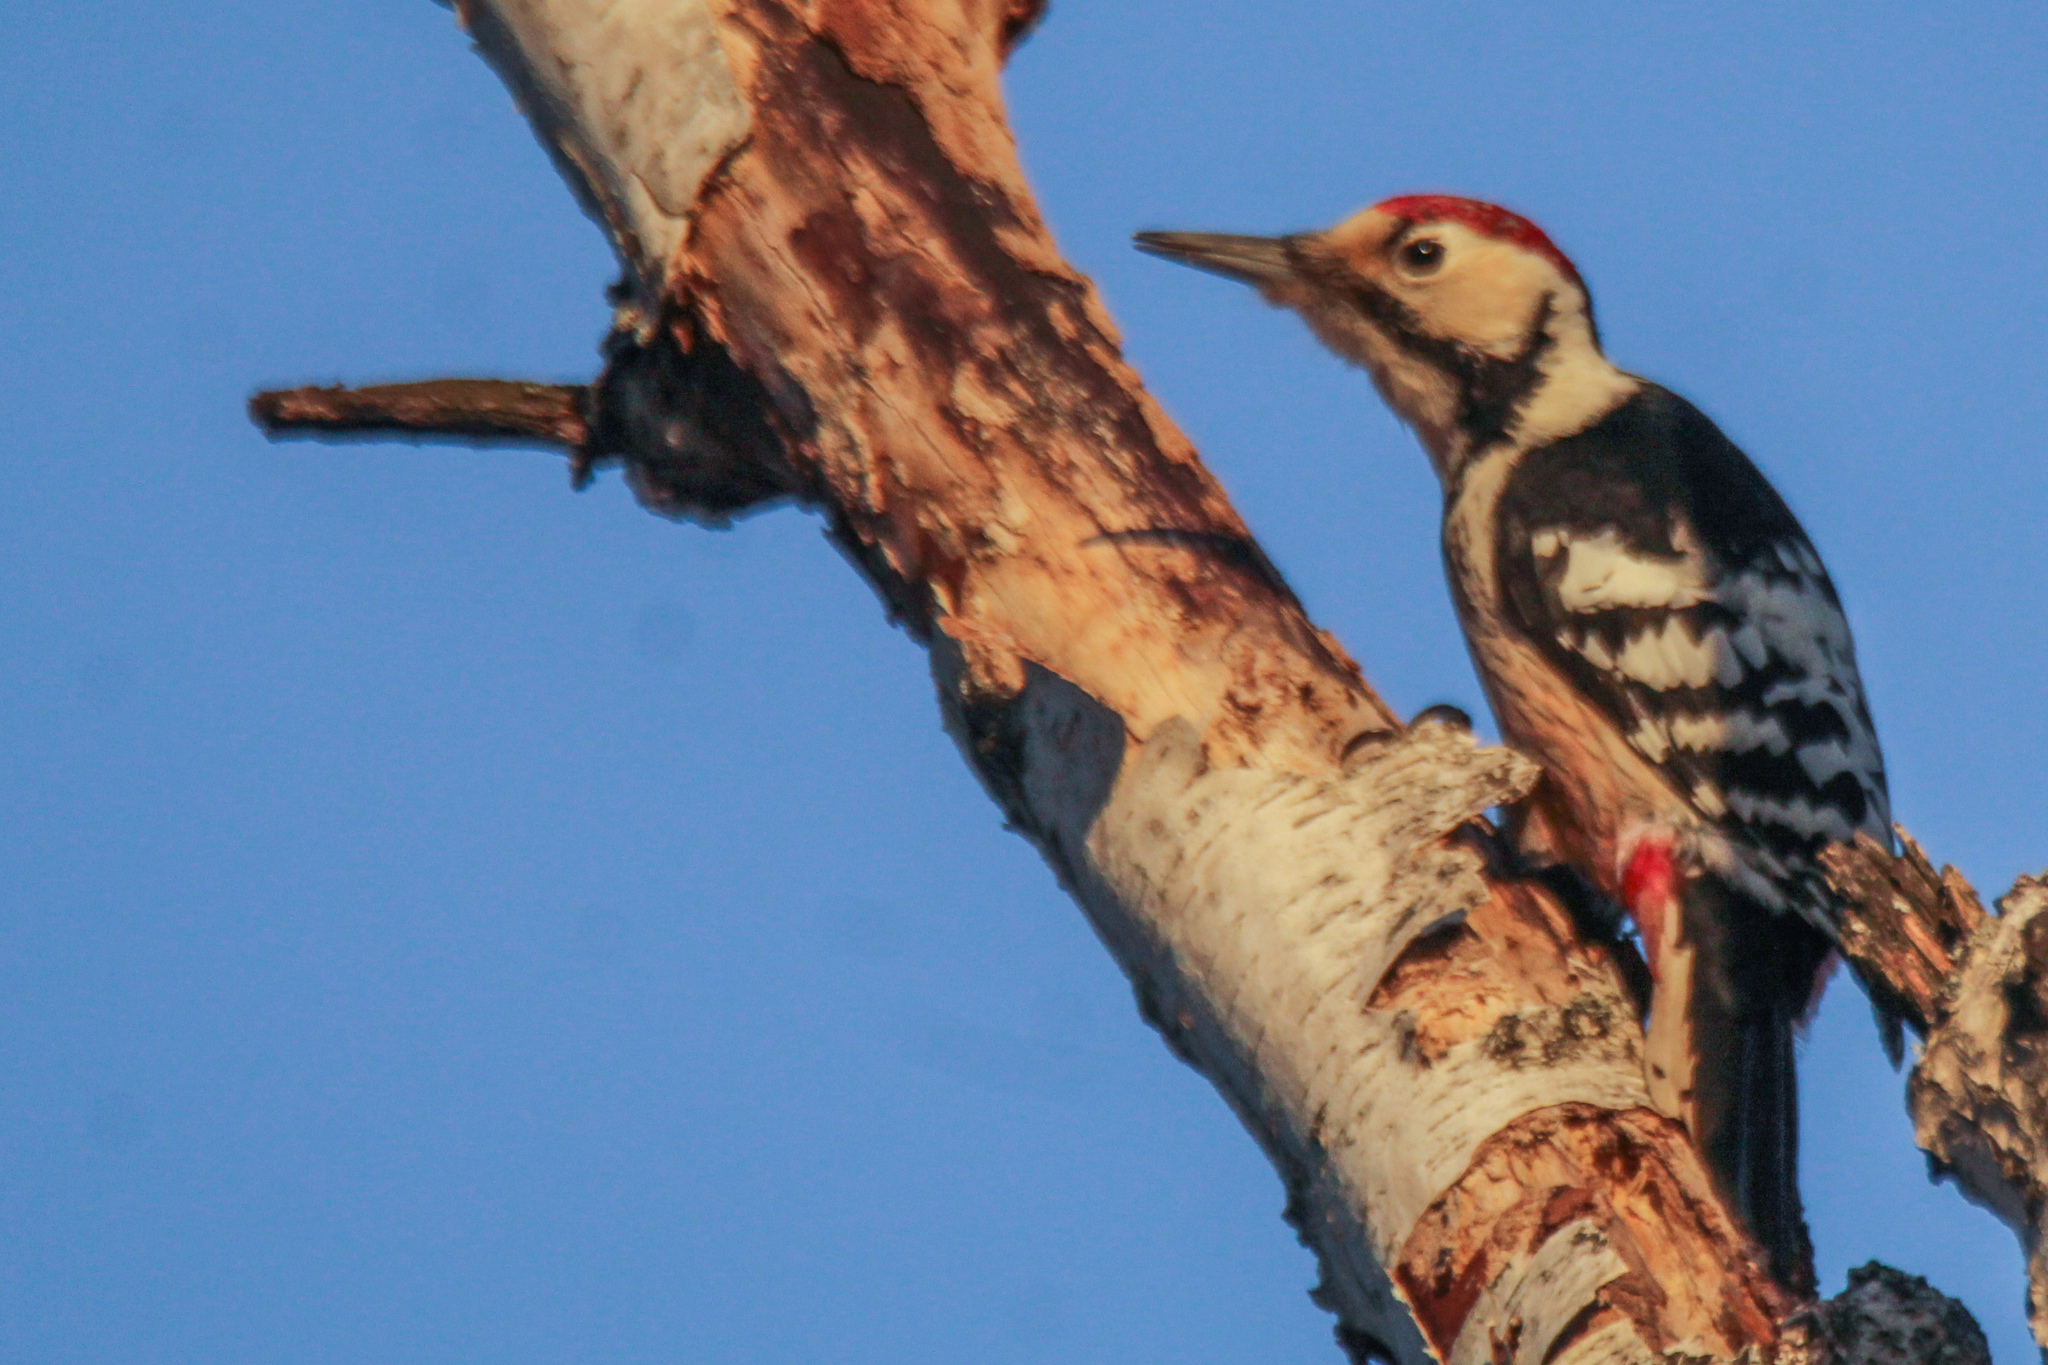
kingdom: Animalia
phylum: Chordata
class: Aves
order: Piciformes
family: Picidae
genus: Dendrocopos
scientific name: Dendrocopos leucotos
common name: White-backed woodpecker
